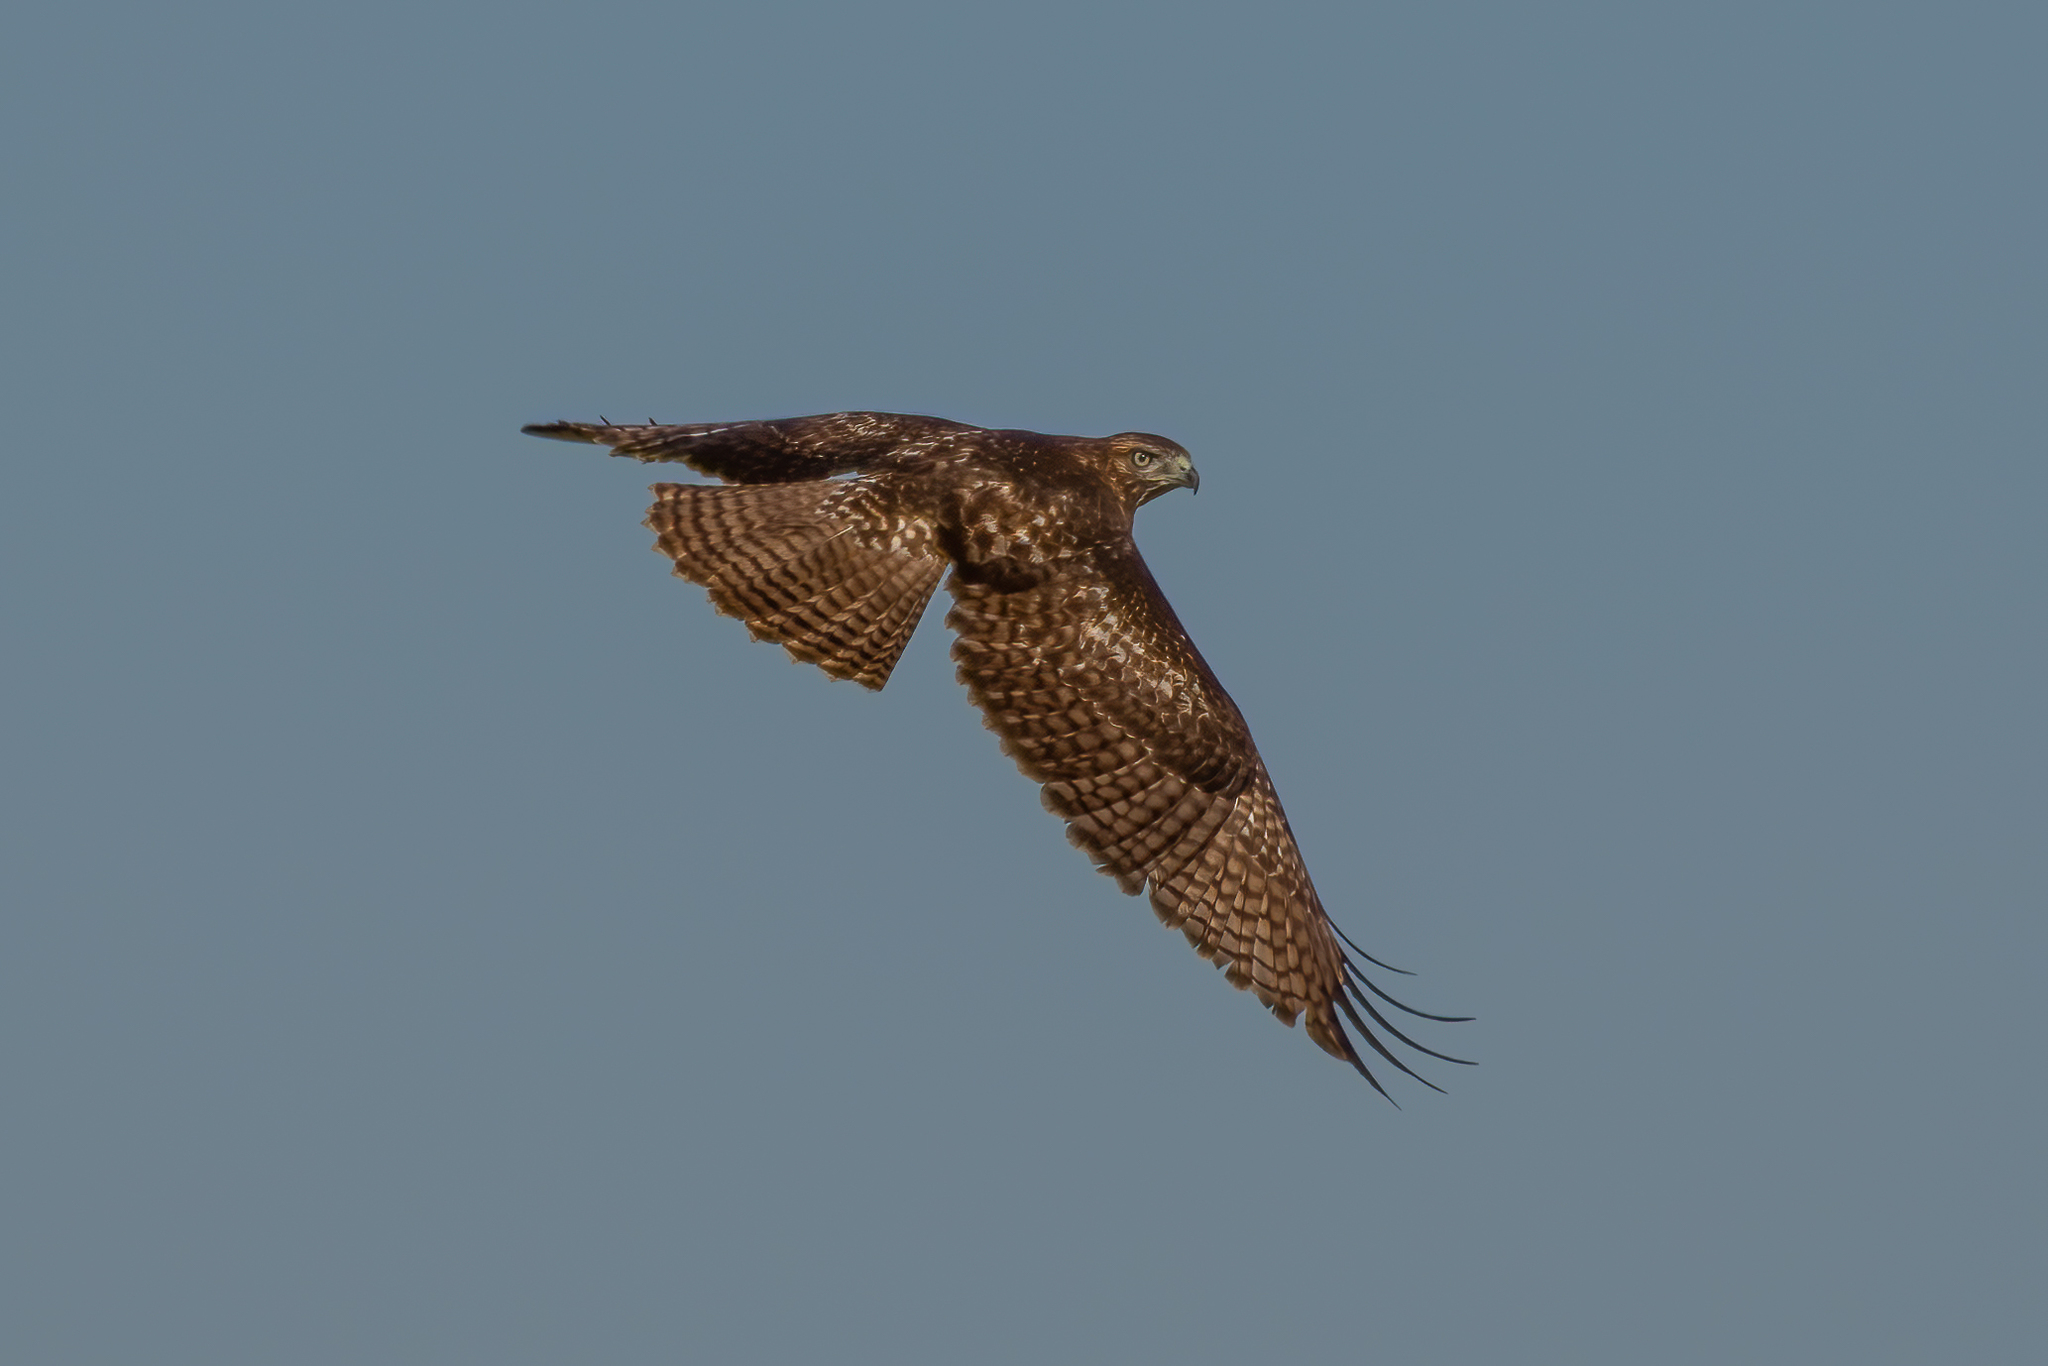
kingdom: Animalia
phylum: Chordata
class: Aves
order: Accipitriformes
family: Accipitridae
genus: Buteo
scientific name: Buteo jamaicensis
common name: Red-tailed hawk
